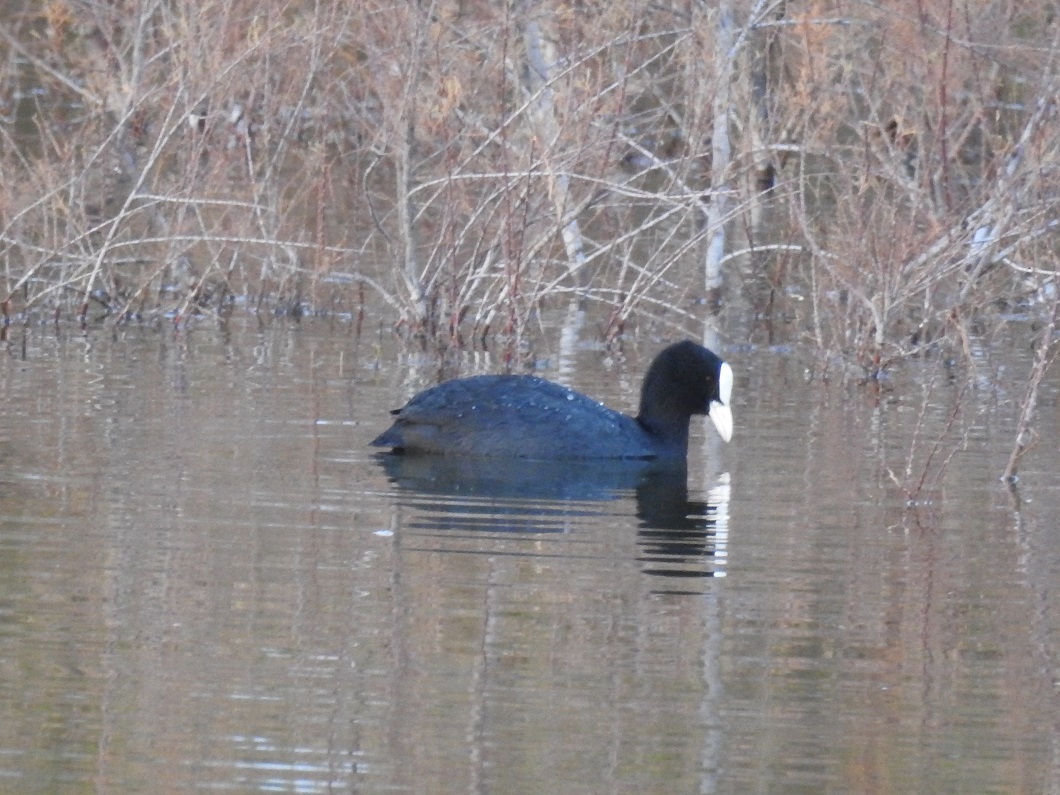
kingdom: Animalia
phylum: Chordata
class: Aves
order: Gruiformes
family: Rallidae
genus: Fulica
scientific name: Fulica atra
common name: Eurasian coot
